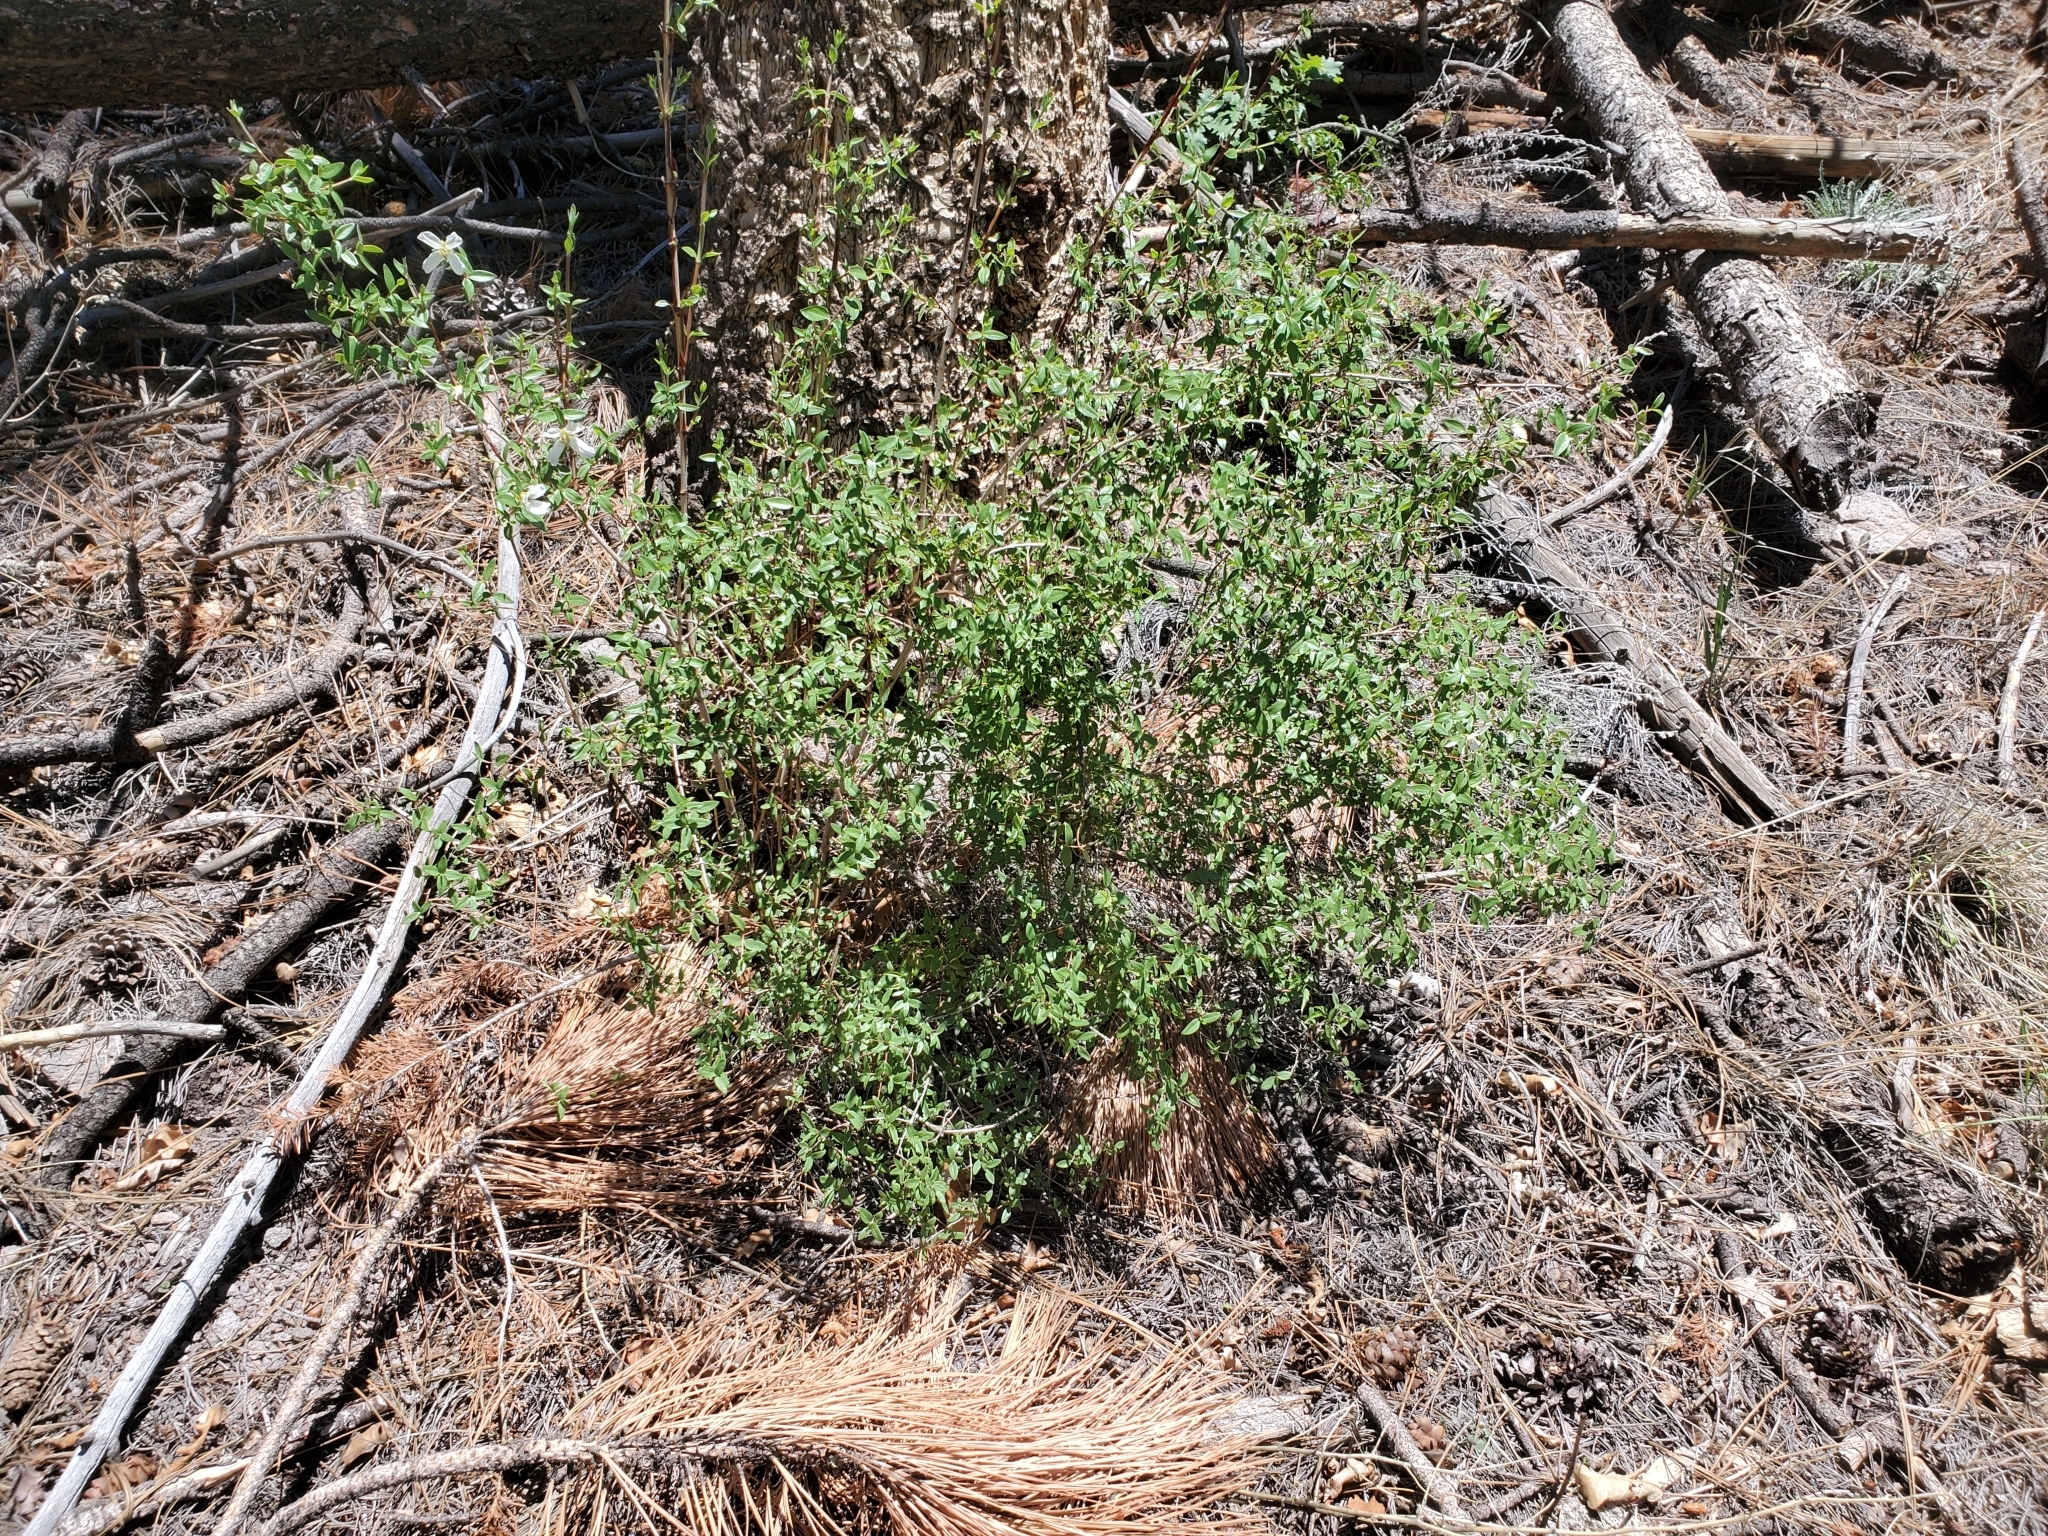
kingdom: Plantae
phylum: Tracheophyta
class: Magnoliopsida
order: Cornales
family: Hydrangeaceae
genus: Philadelphus
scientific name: Philadelphus microphyllus
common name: Desert mock orange
